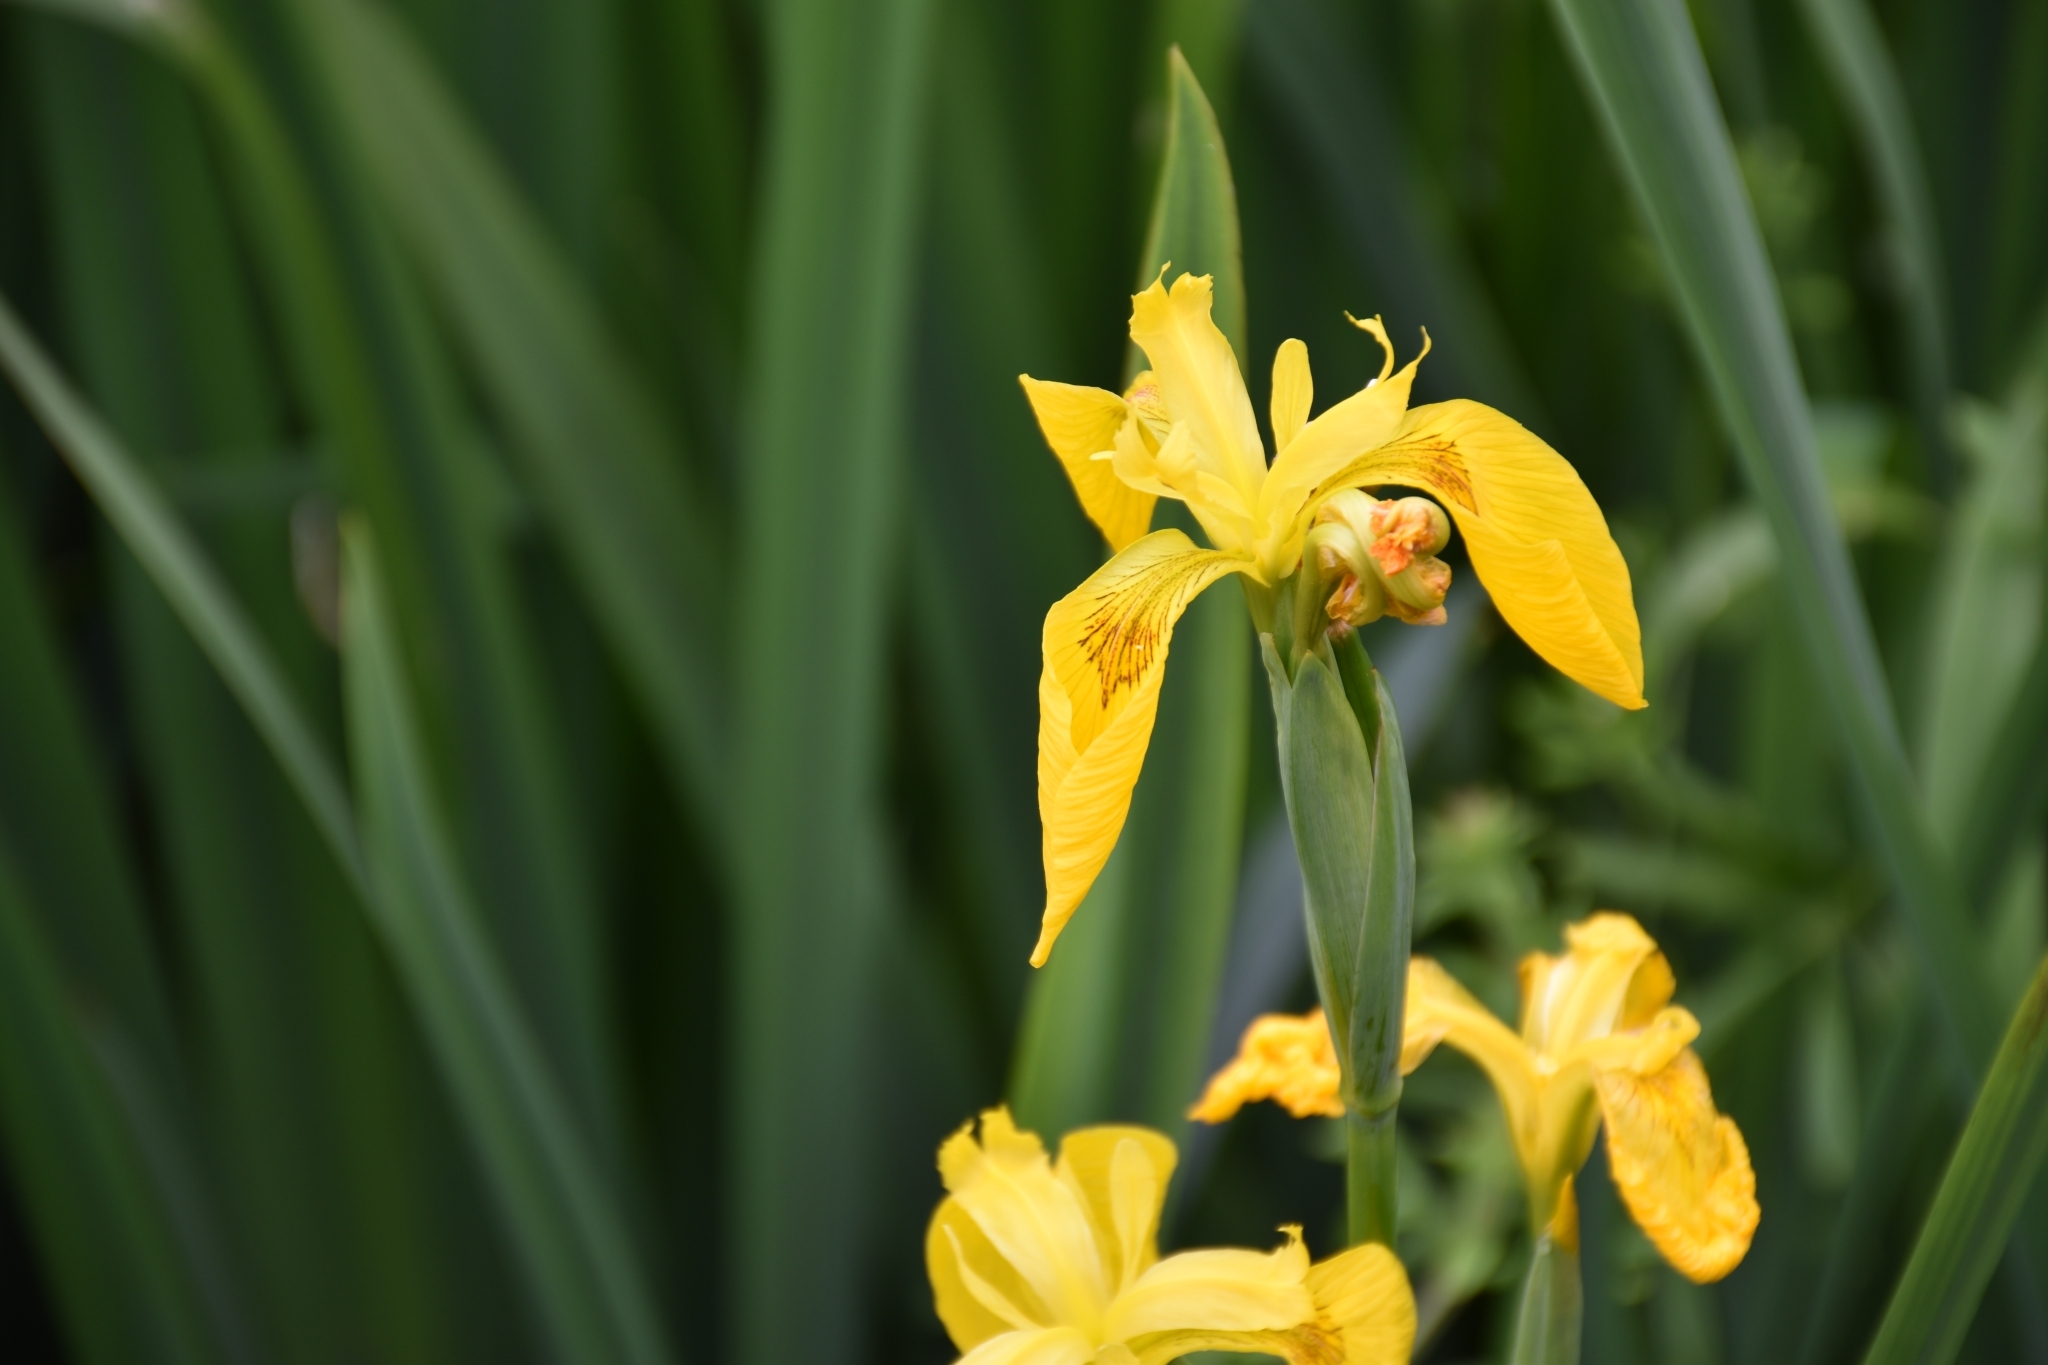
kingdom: Plantae
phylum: Tracheophyta
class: Liliopsida
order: Asparagales
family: Iridaceae
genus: Iris
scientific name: Iris pseudacorus
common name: Yellow flag
